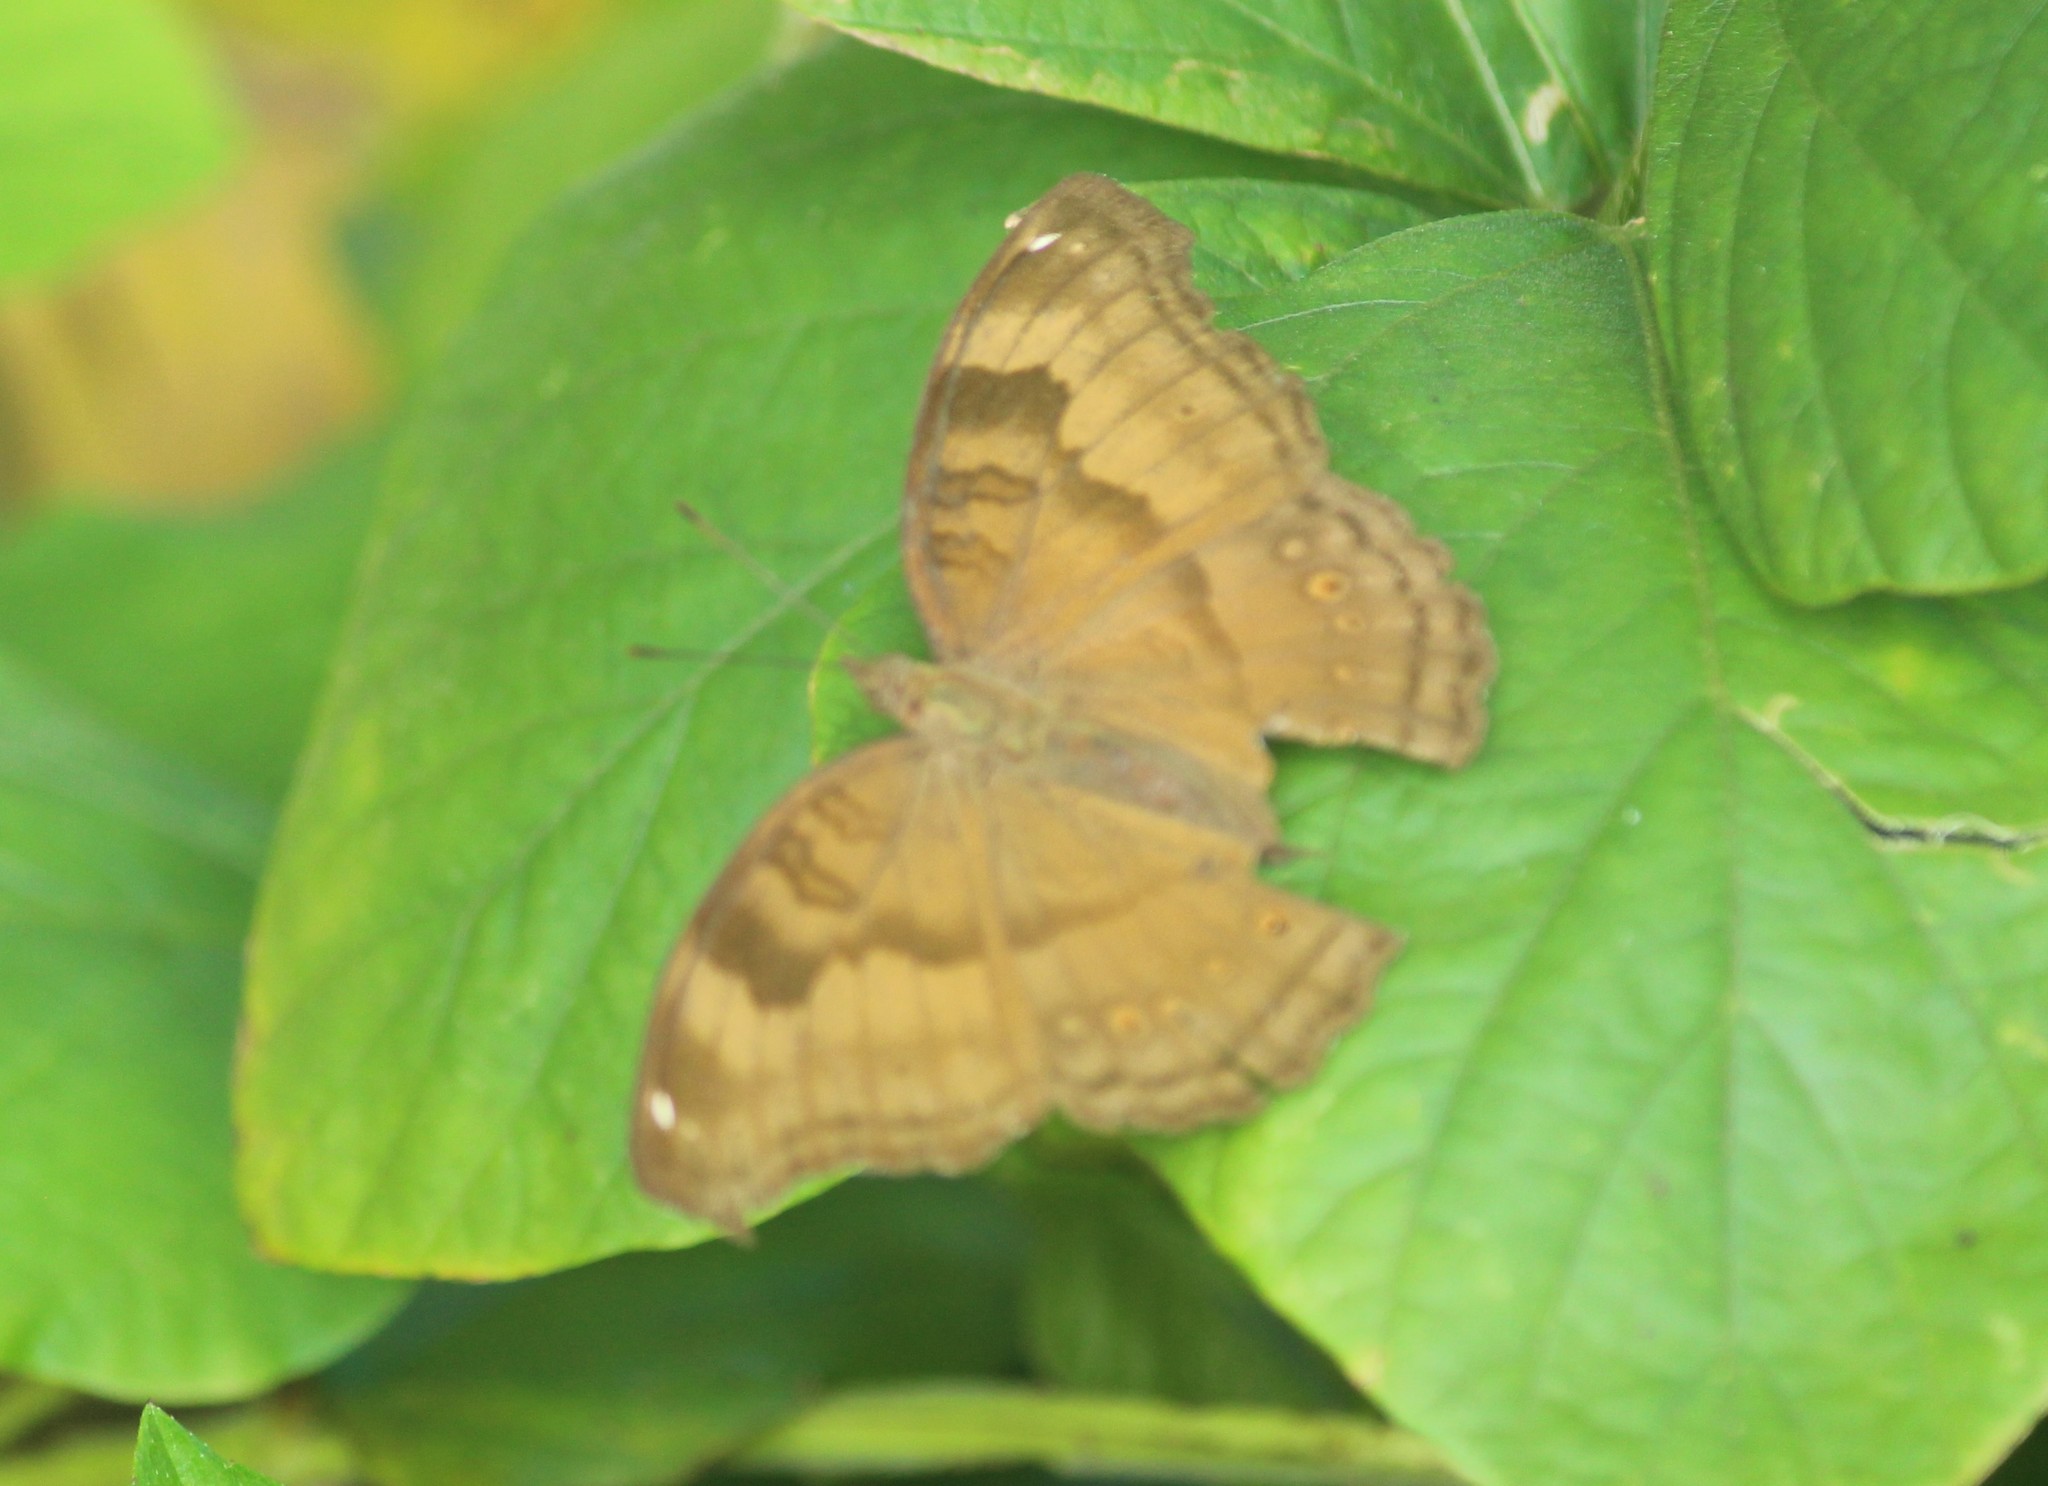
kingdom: Animalia
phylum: Arthropoda
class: Insecta
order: Lepidoptera
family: Nymphalidae
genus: Junonia
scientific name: Junonia iphita
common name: Chocolate pansy
